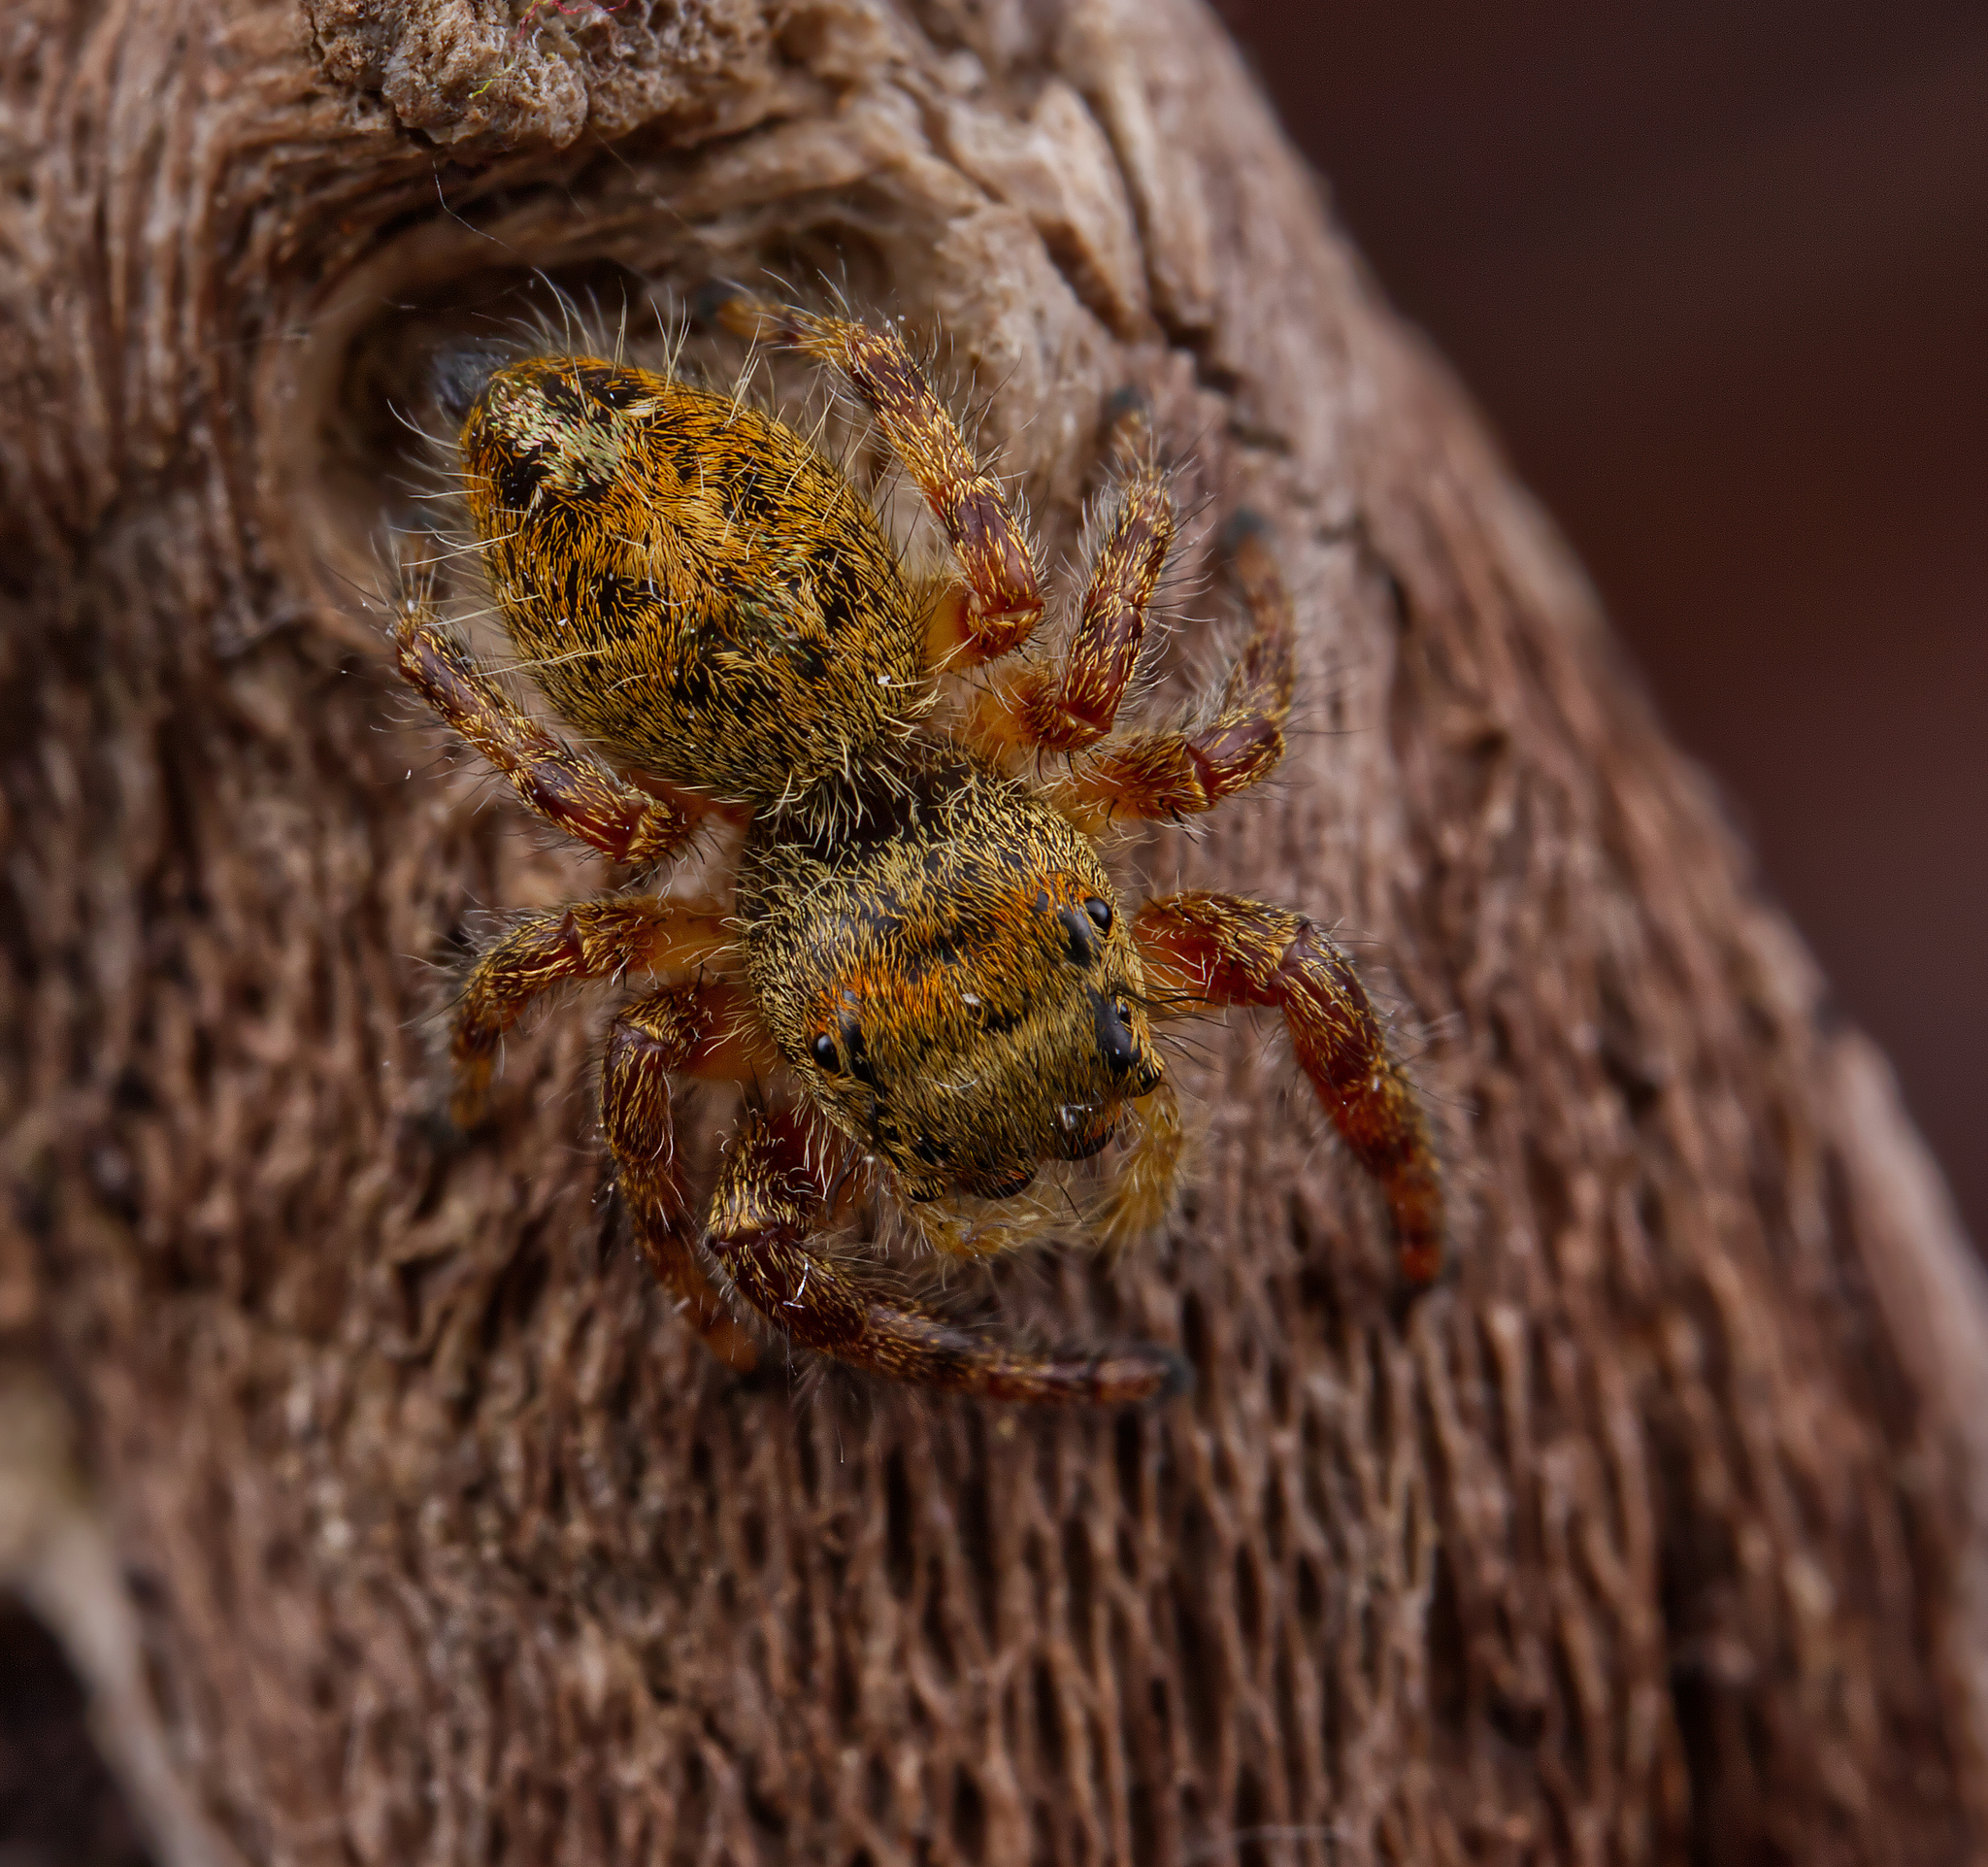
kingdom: Animalia
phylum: Arthropoda
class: Arachnida
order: Araneae
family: Salticidae
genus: Phidippus
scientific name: Phidippus princeps
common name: Grayish jumping spider
